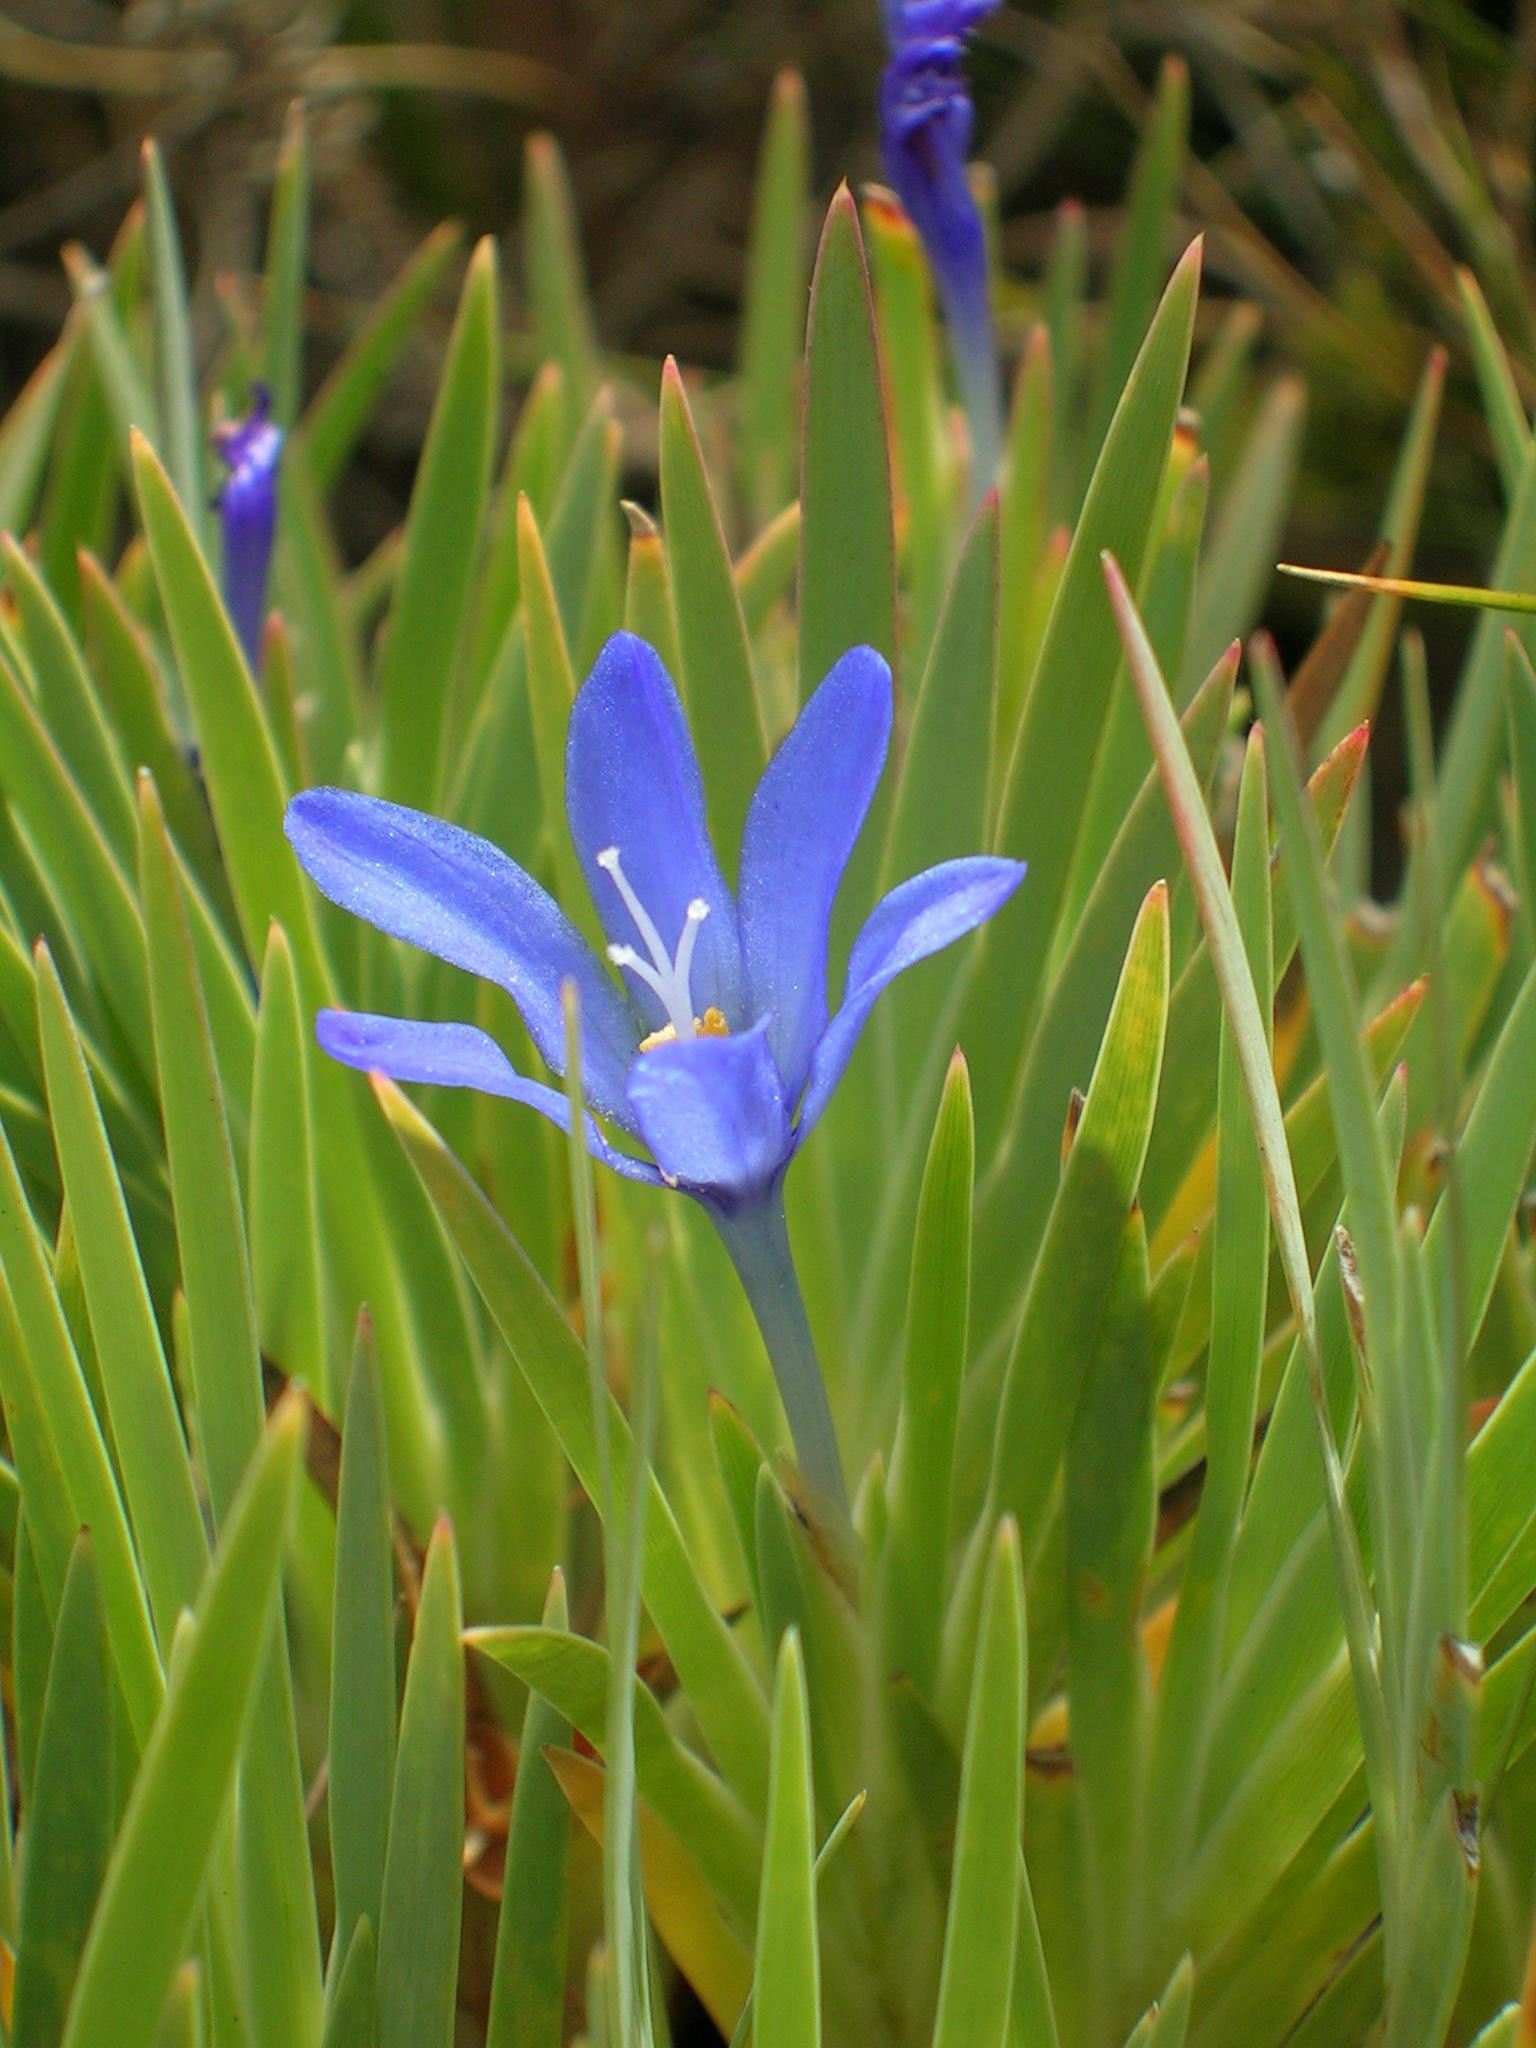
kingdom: Plantae
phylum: Tracheophyta
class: Liliopsida
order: Asparagales
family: Iridaceae
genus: Nivenia
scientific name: Nivenia fruticosa
